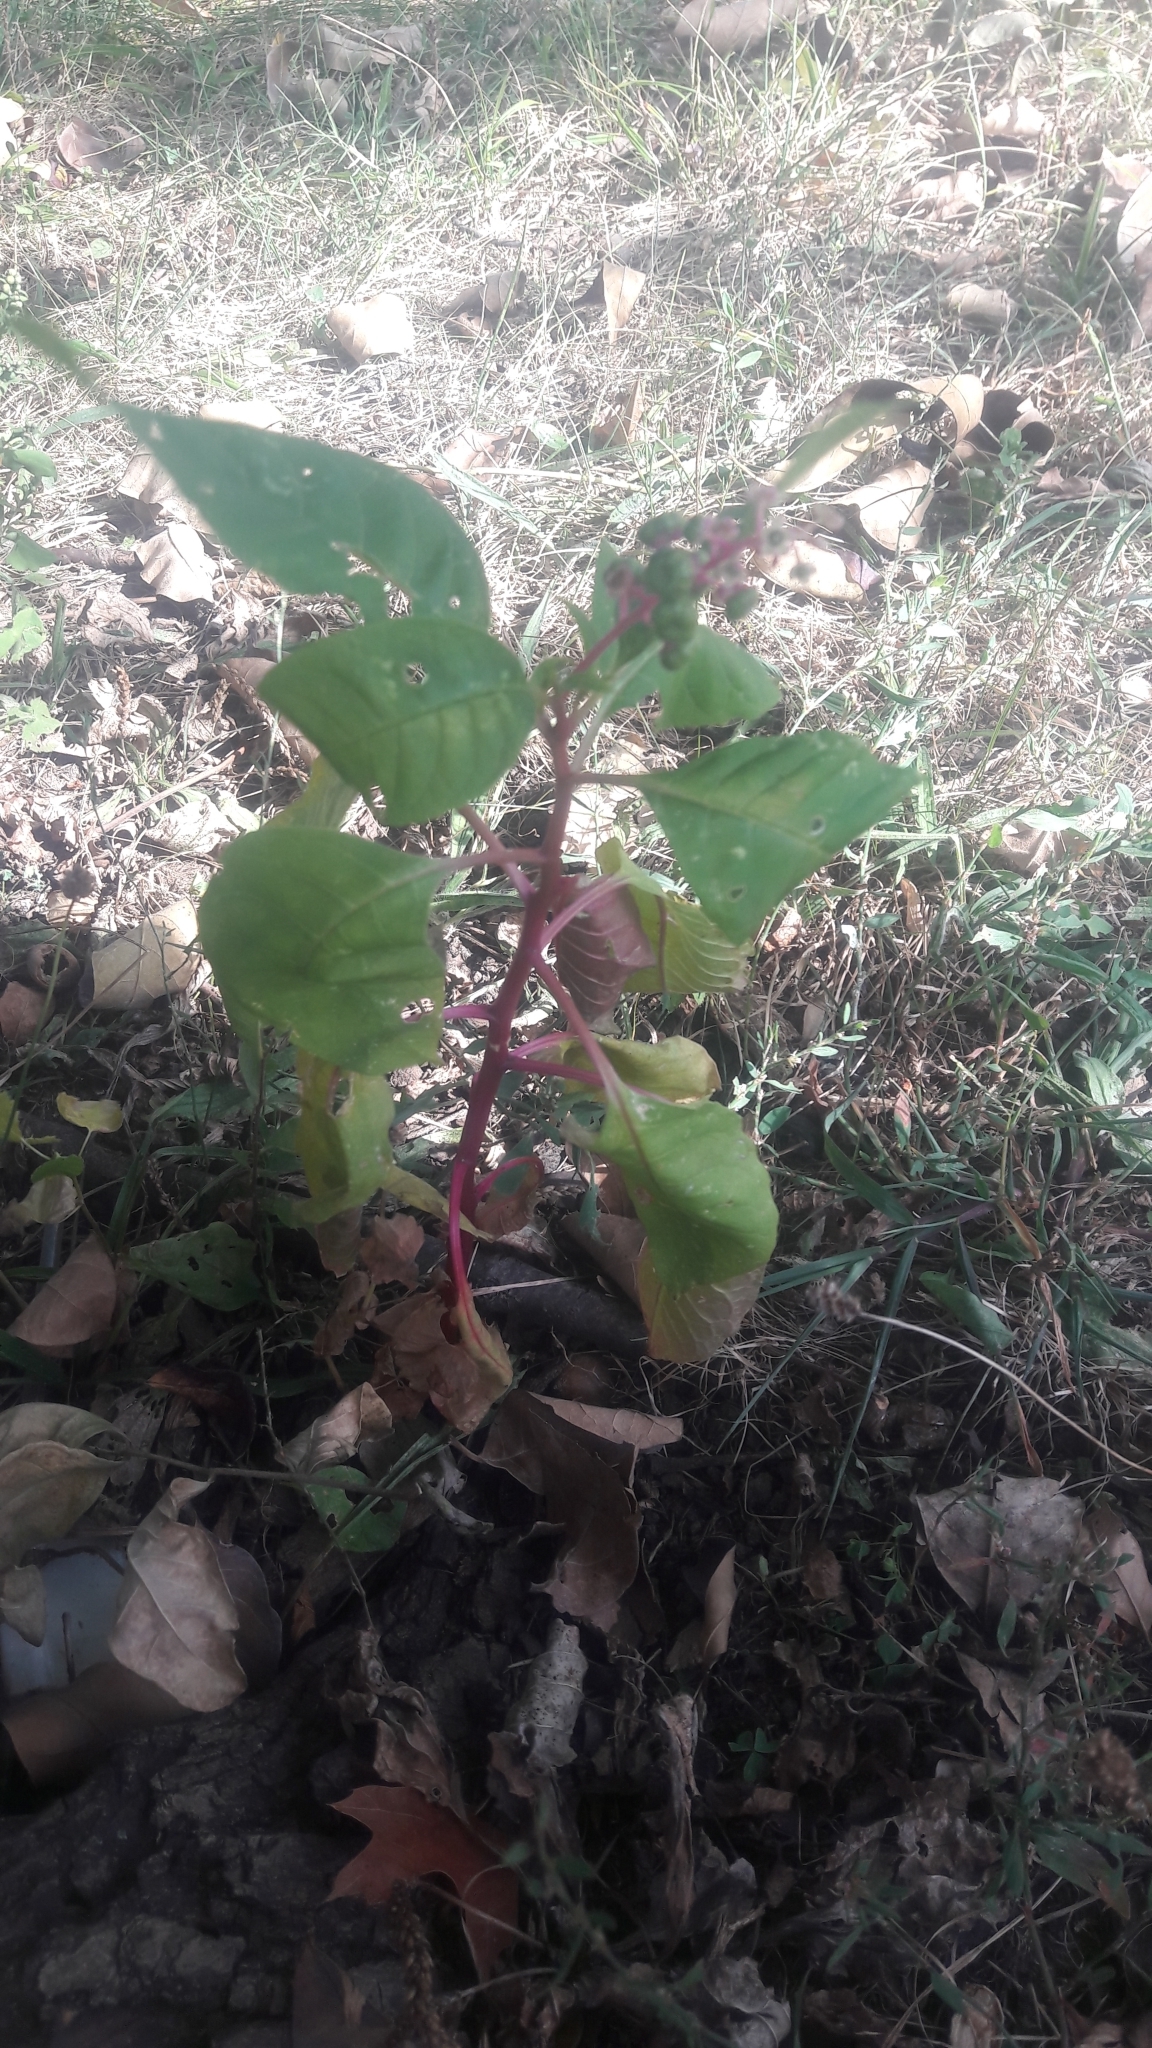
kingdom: Plantae
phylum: Tracheophyta
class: Magnoliopsida
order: Caryophyllales
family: Phytolaccaceae
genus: Phytolacca
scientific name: Phytolacca americana
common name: American pokeweed
